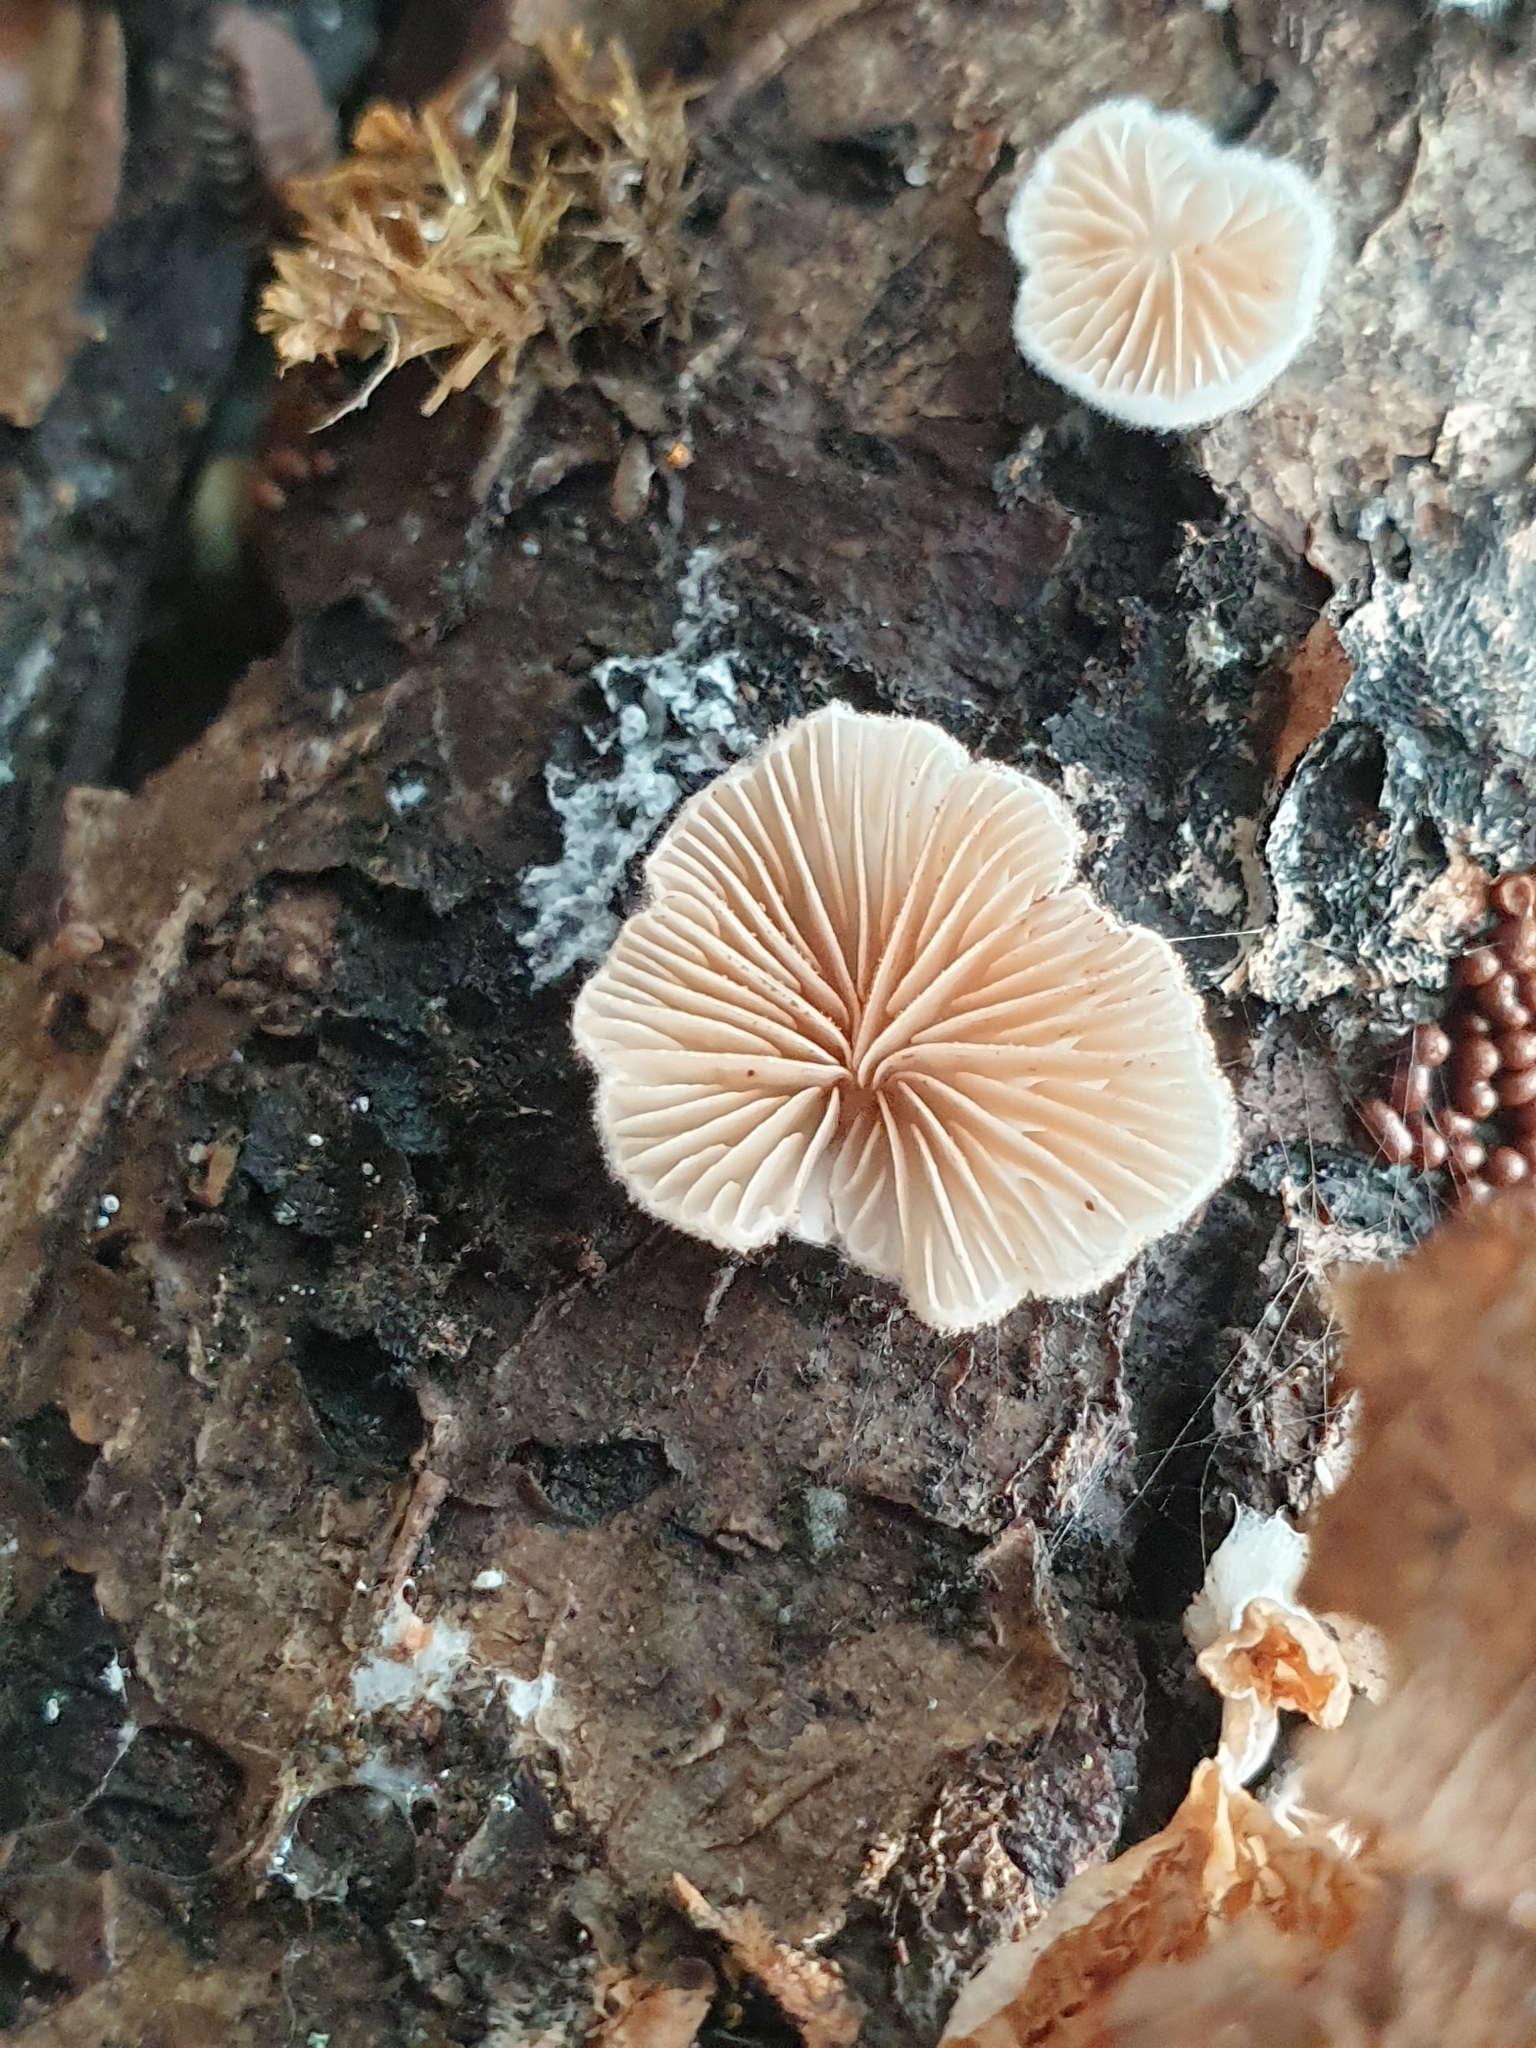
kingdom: Fungi
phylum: Basidiomycota
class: Agaricomycetes
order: Agaricales
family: Schizophyllaceae
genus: Schizophyllum
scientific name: Schizophyllum commune
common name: Common porecrust
